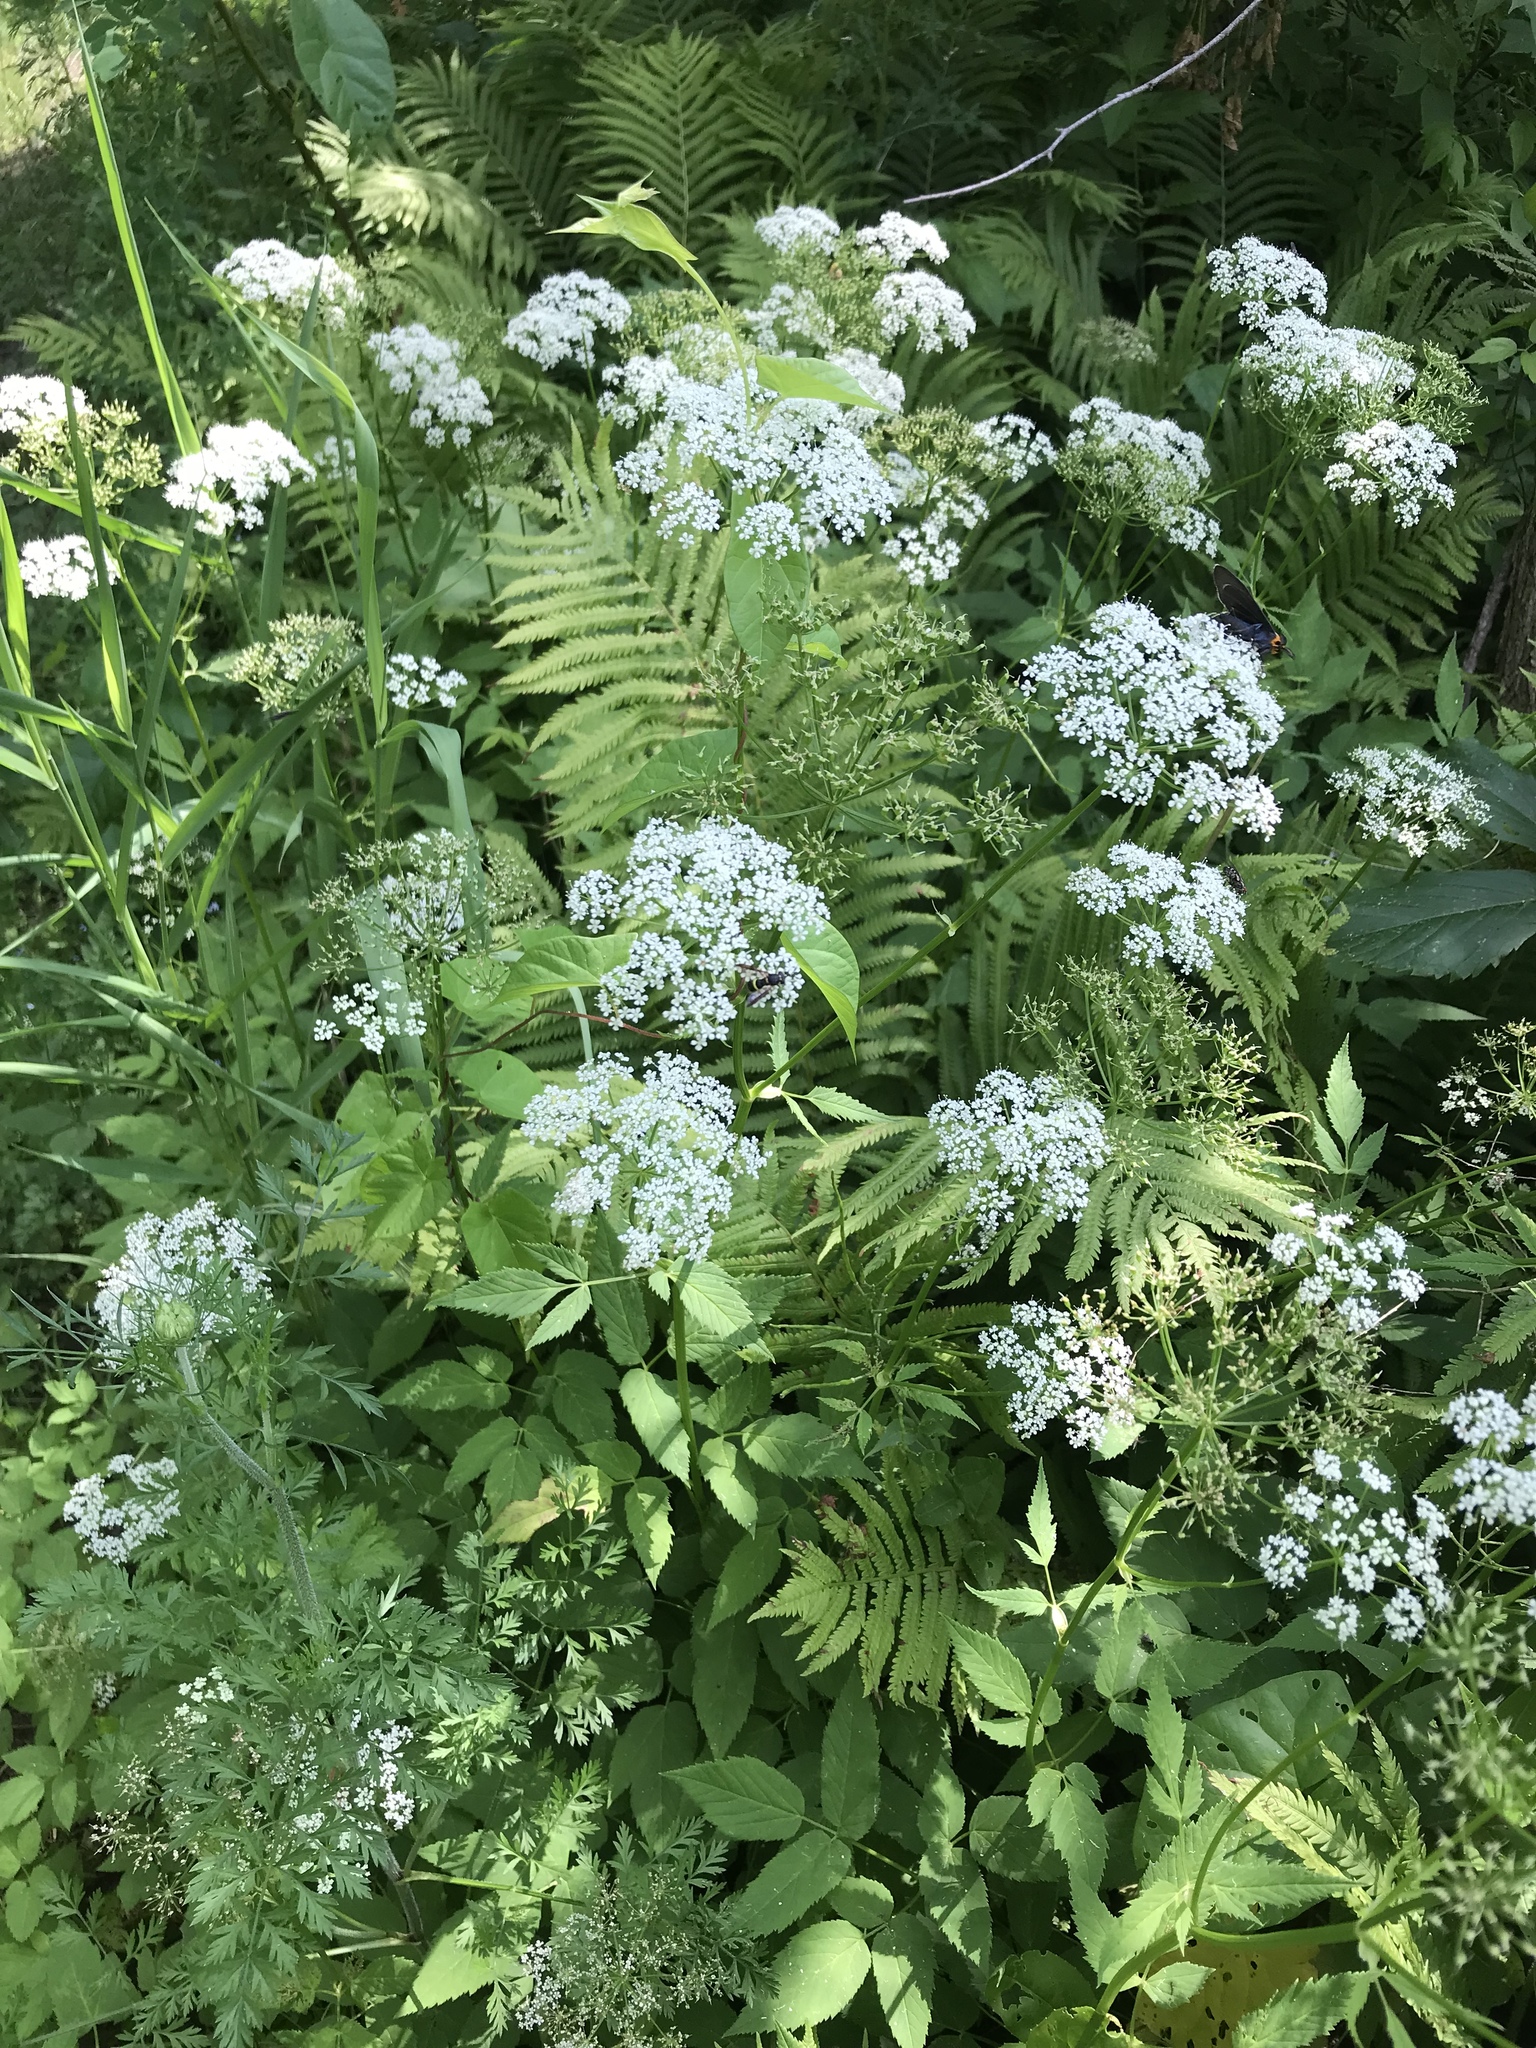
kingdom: Plantae
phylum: Tracheophyta
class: Magnoliopsida
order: Apiales
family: Apiaceae
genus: Aegopodium
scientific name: Aegopodium podagraria
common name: Ground-elder
